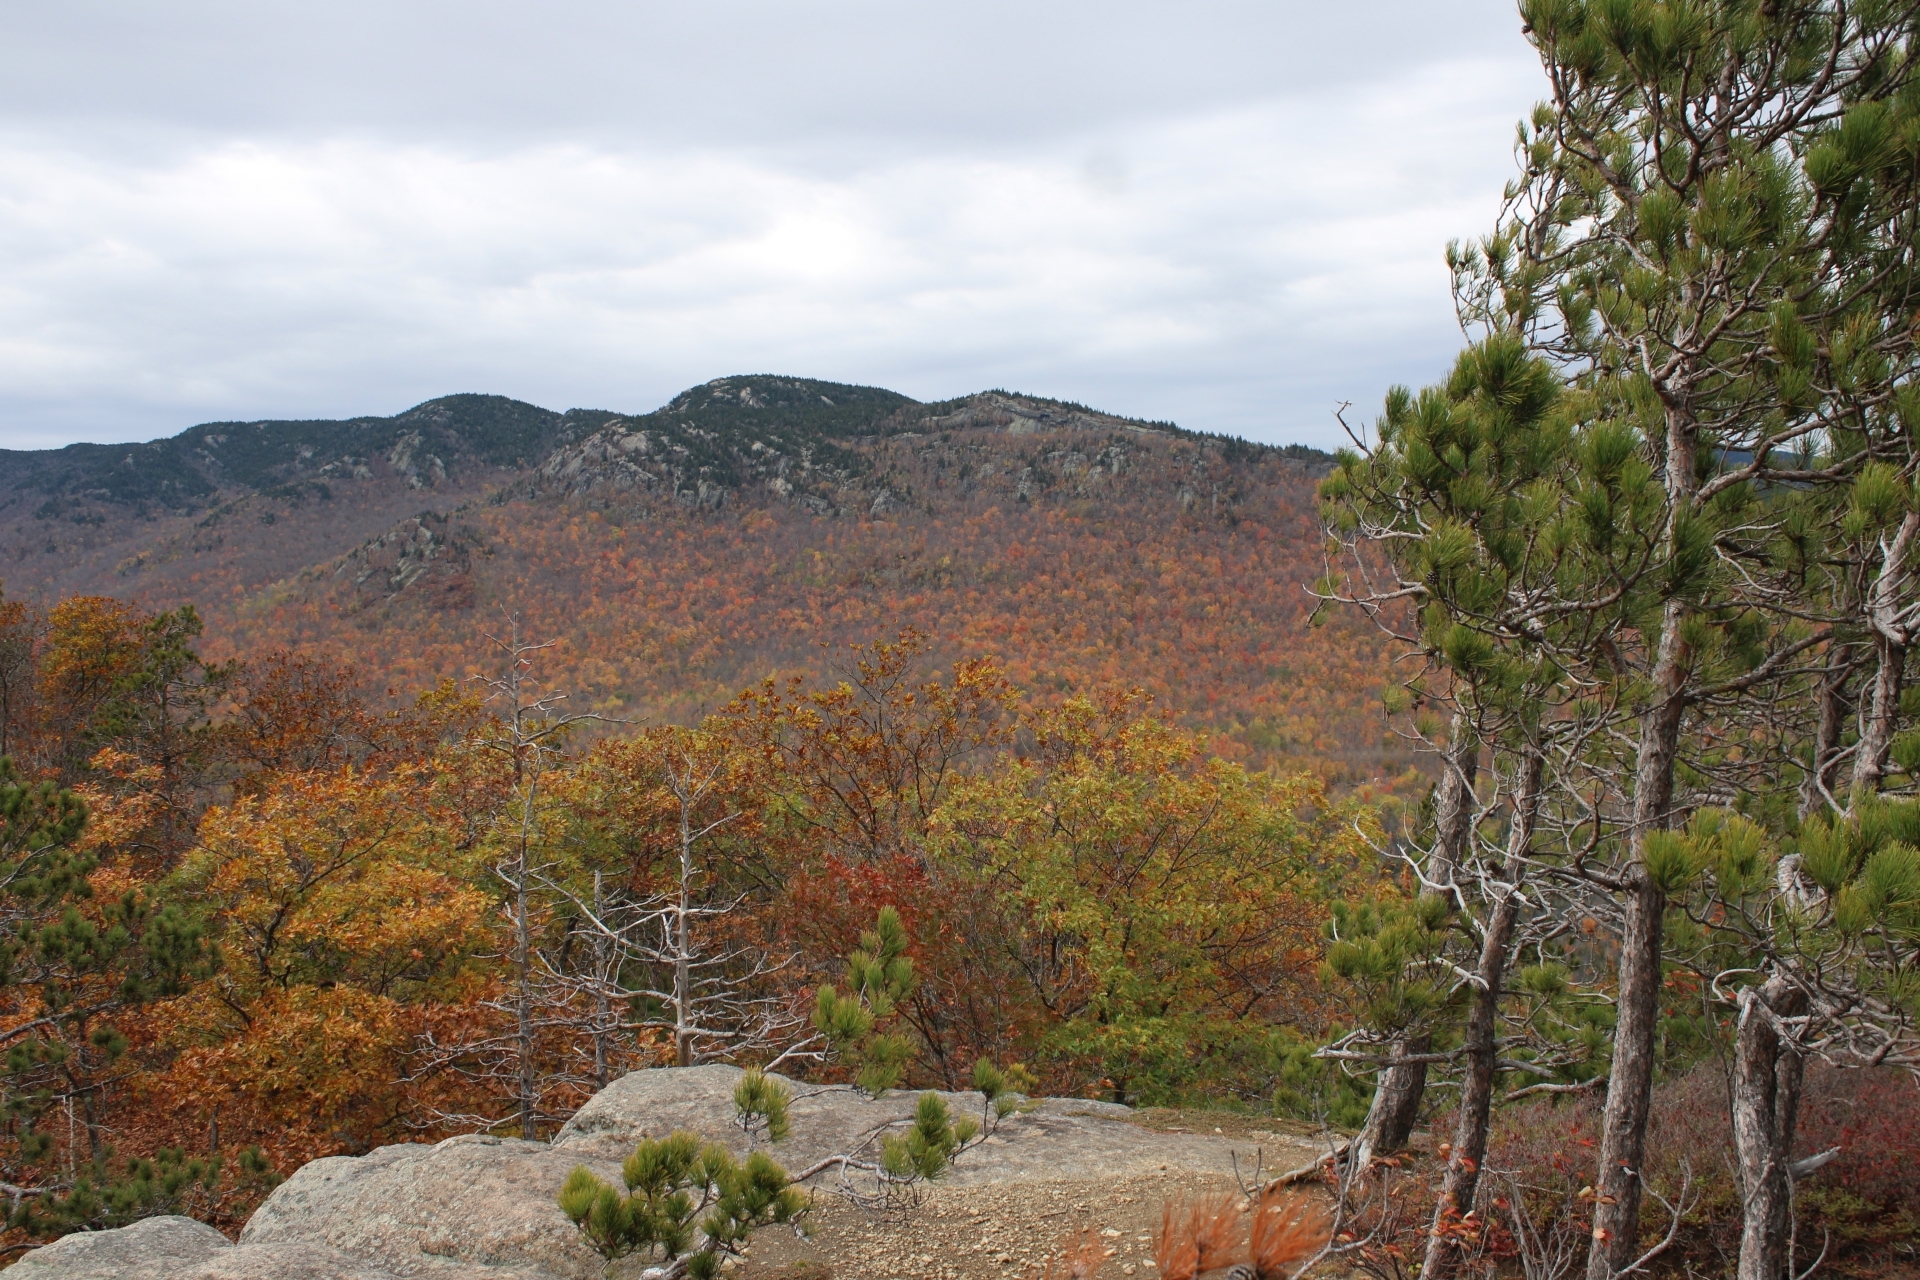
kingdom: Plantae
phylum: Tracheophyta
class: Pinopsida
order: Pinales
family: Pinaceae
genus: Pinus
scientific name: Pinus resinosa
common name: Norway pine
